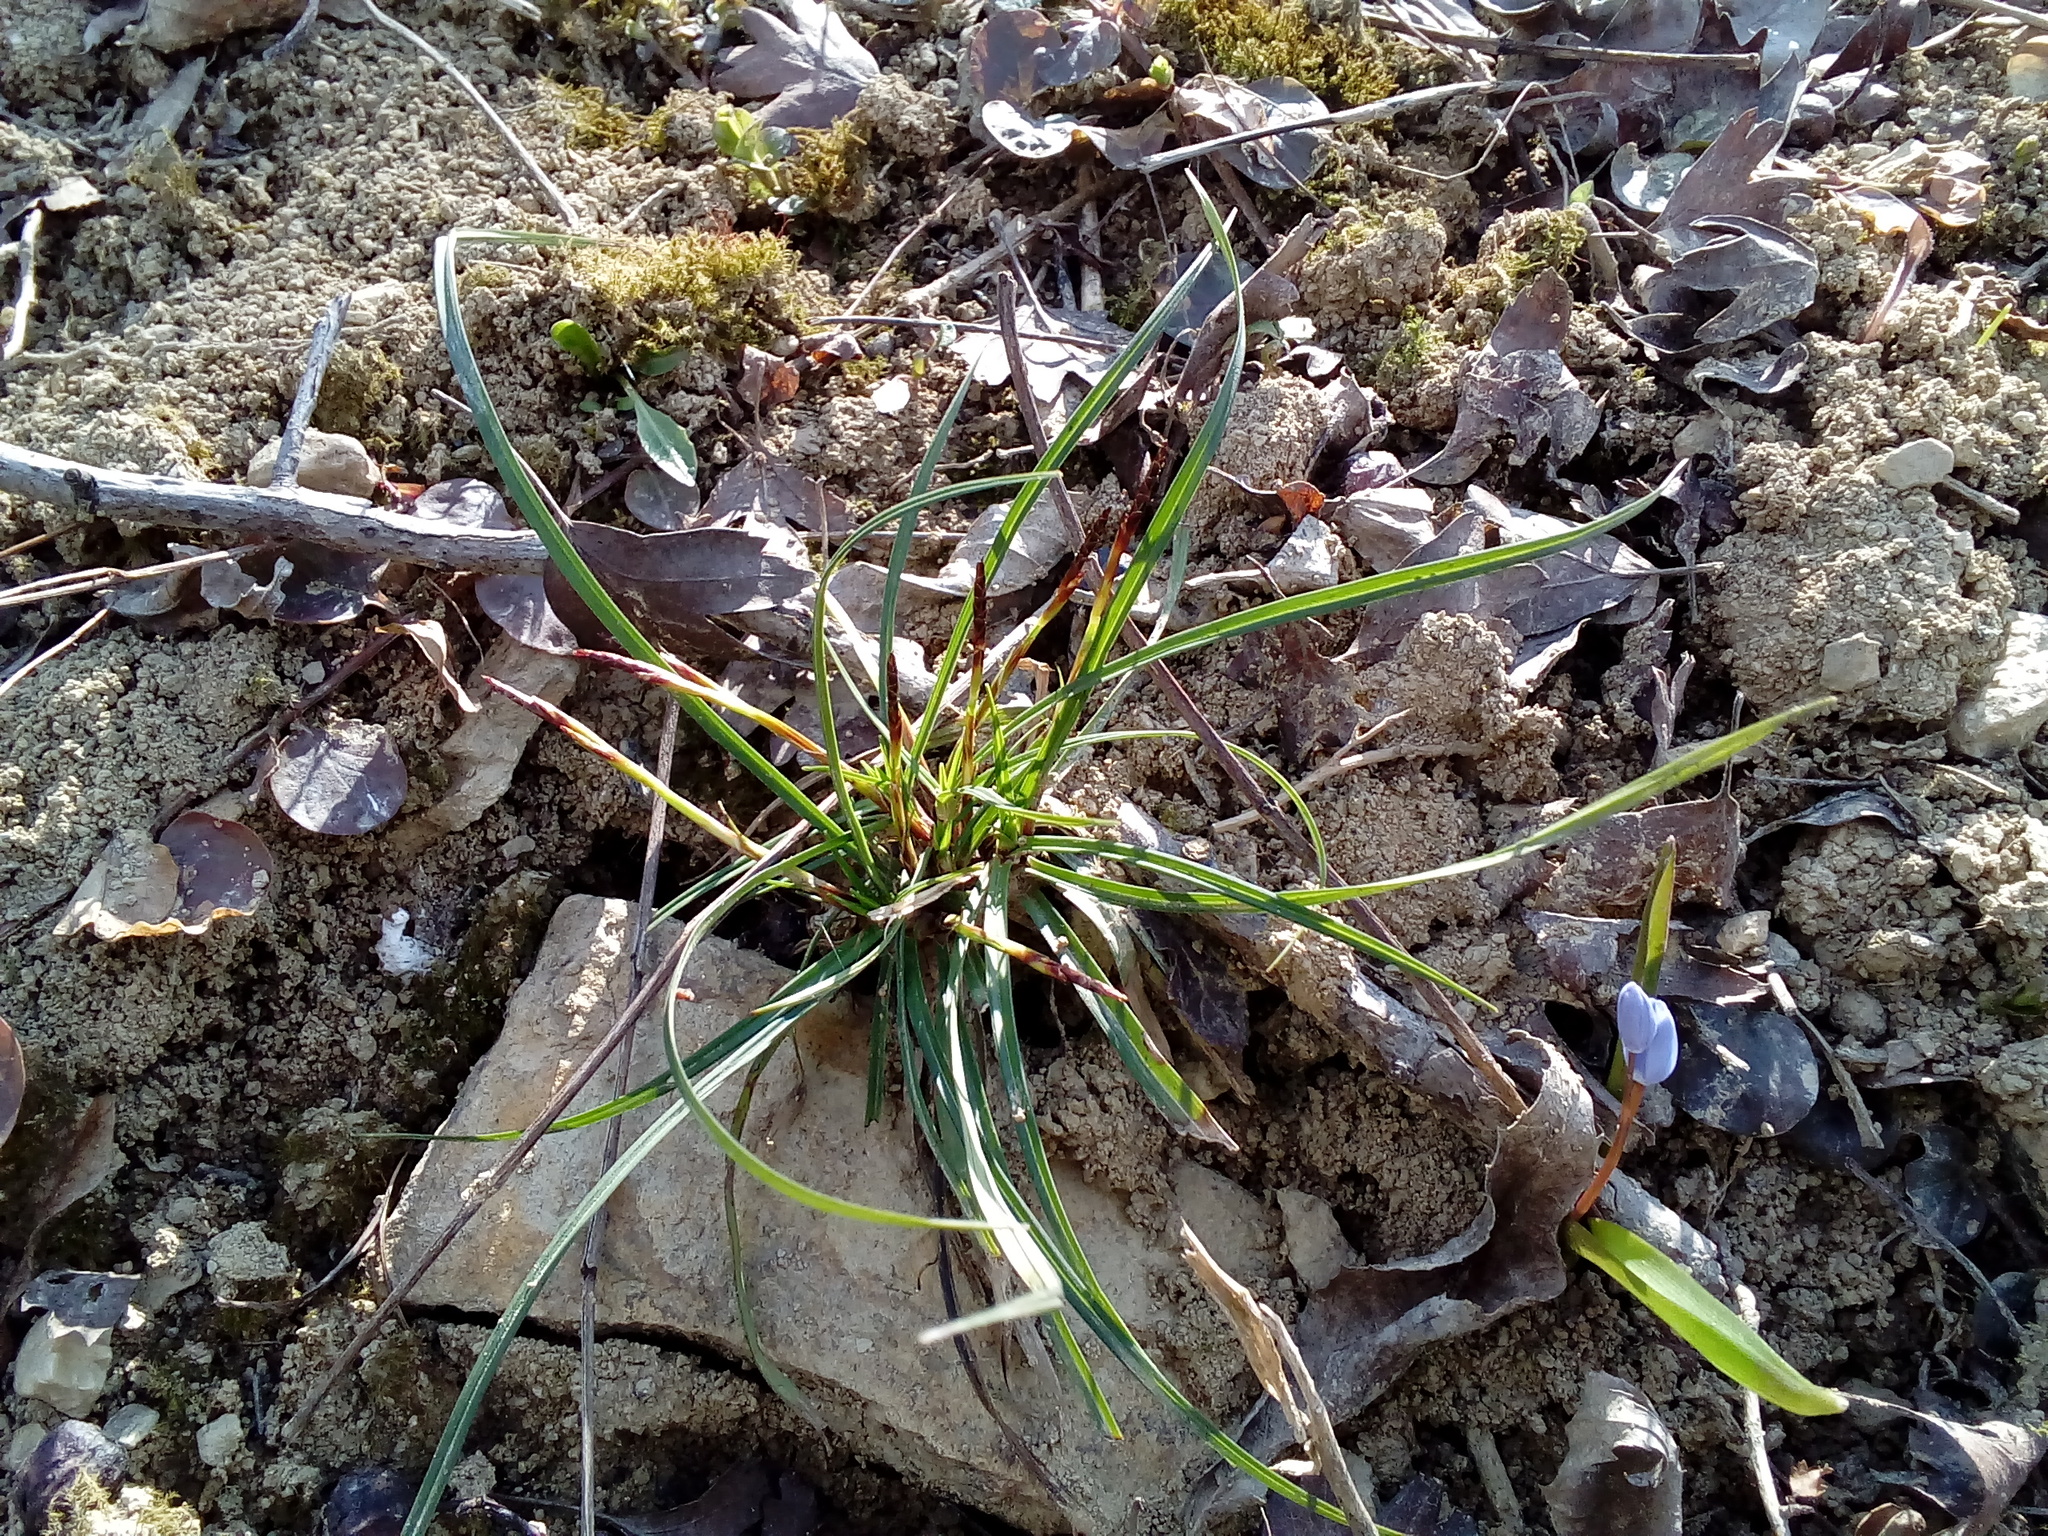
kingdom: Plantae
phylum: Tracheophyta
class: Liliopsida
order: Poales
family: Cyperaceae
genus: Carex
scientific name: Carex digitata
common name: Fingered sedge
